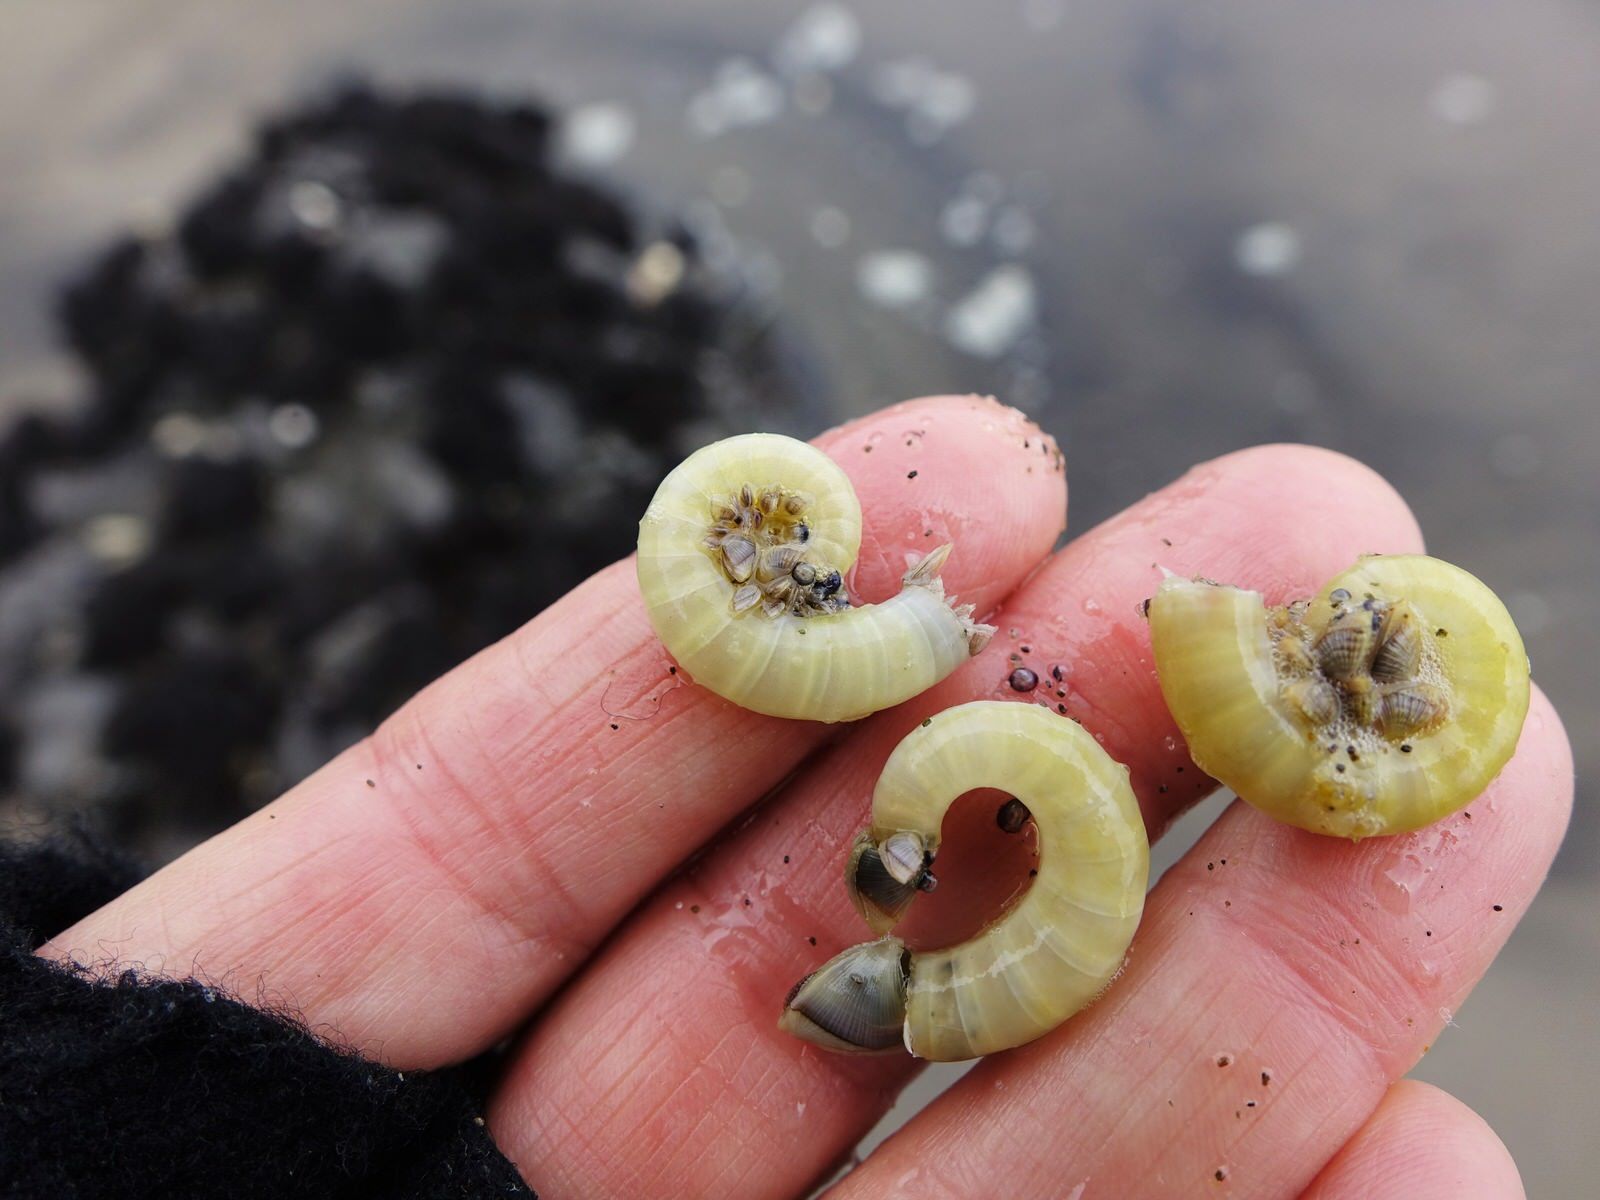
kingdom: Animalia
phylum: Mollusca
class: Cephalopoda
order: Spirulida
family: Spirulidae
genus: Spirula
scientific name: Spirula spirula
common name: Ram's horn squid
